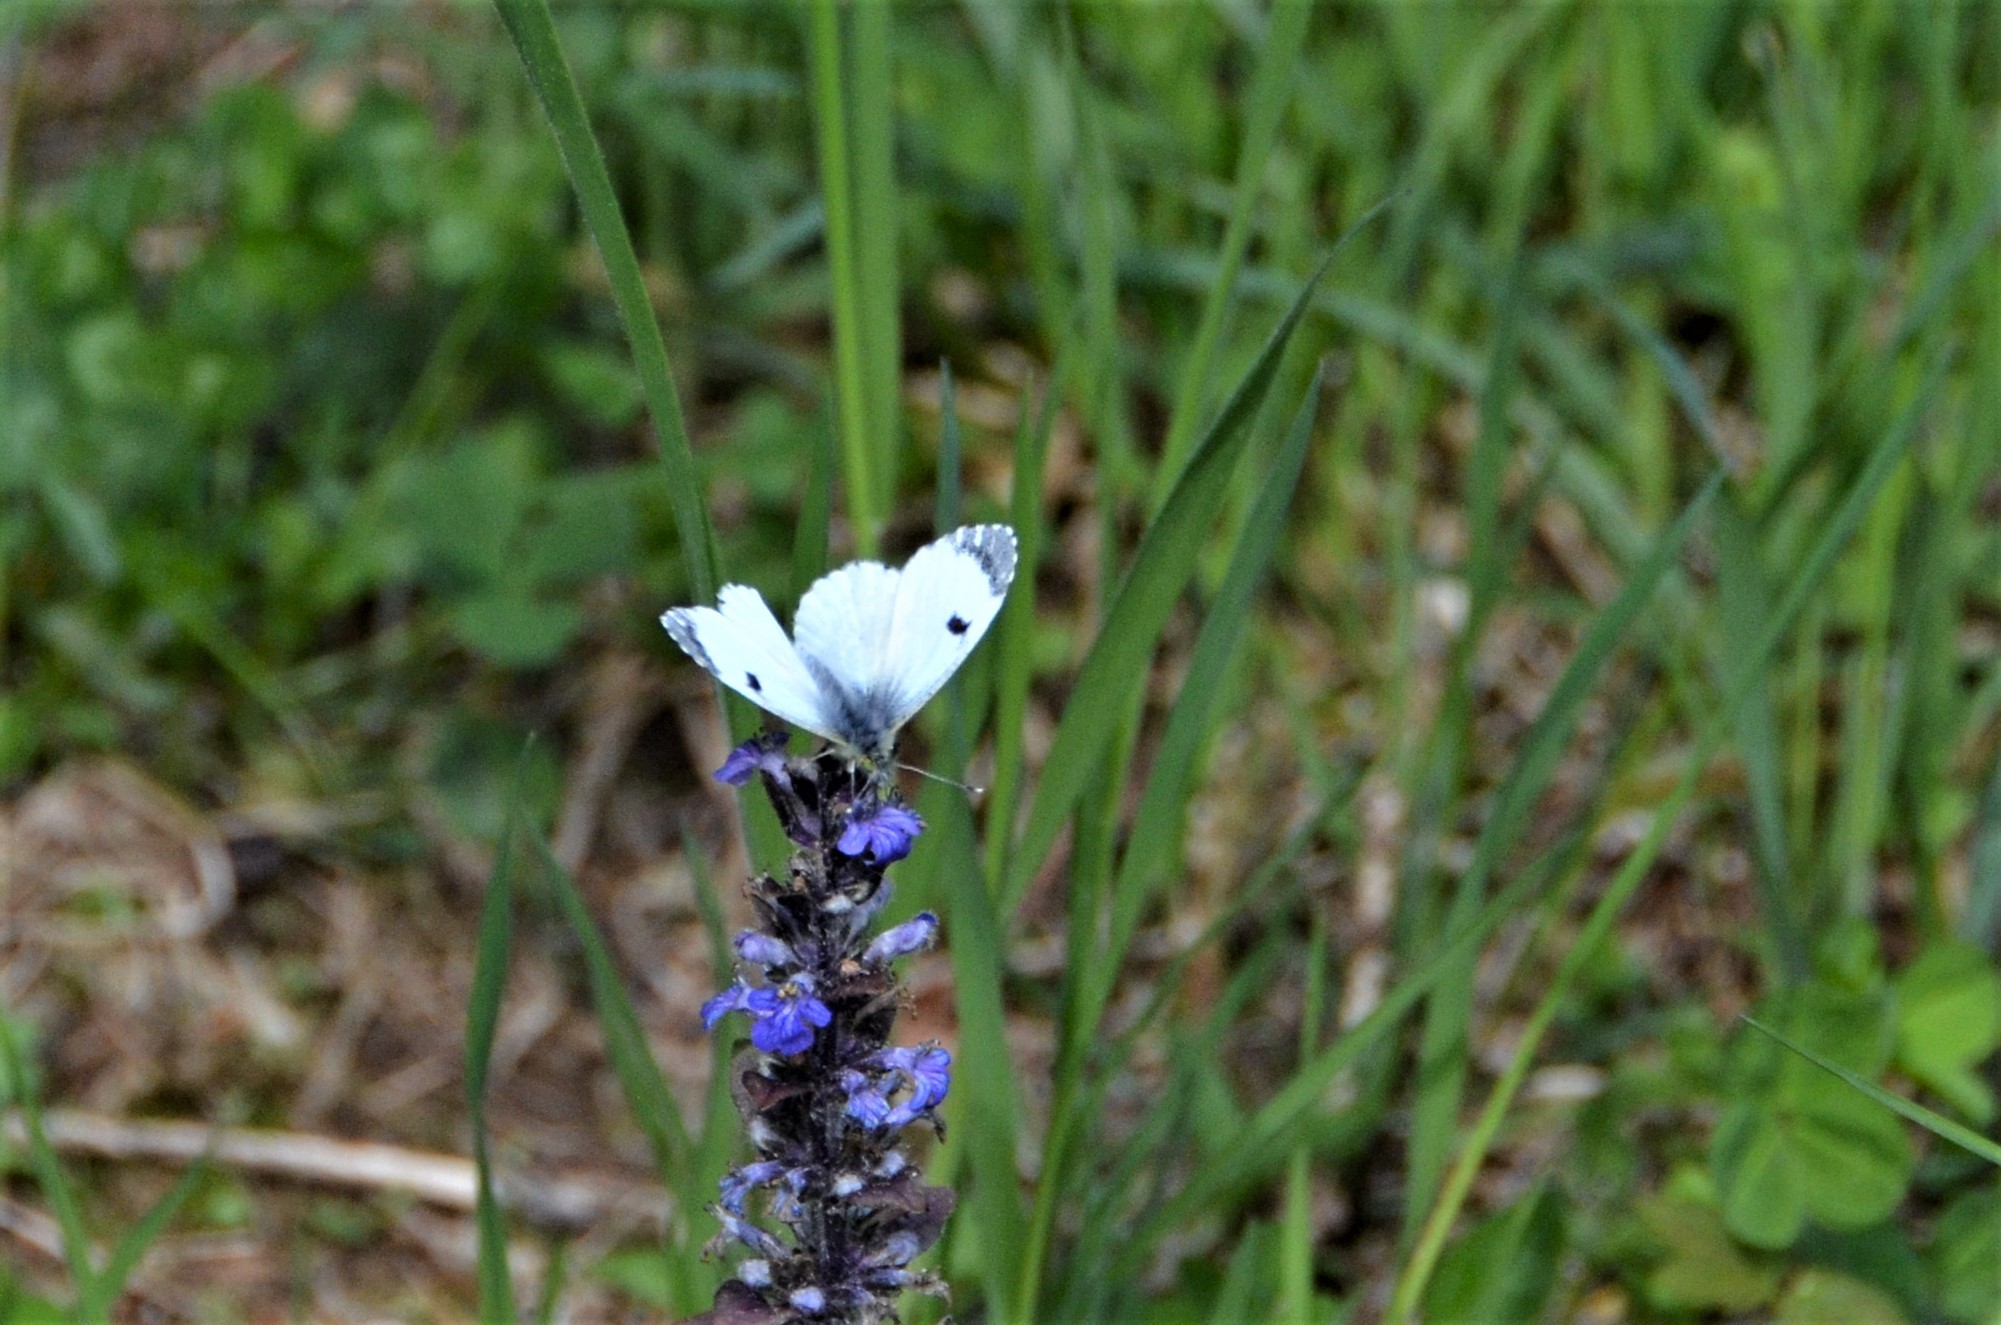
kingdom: Animalia
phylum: Arthropoda
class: Insecta
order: Lepidoptera
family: Pieridae
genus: Anthocharis
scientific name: Anthocharis cardamines
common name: Orange-tip
